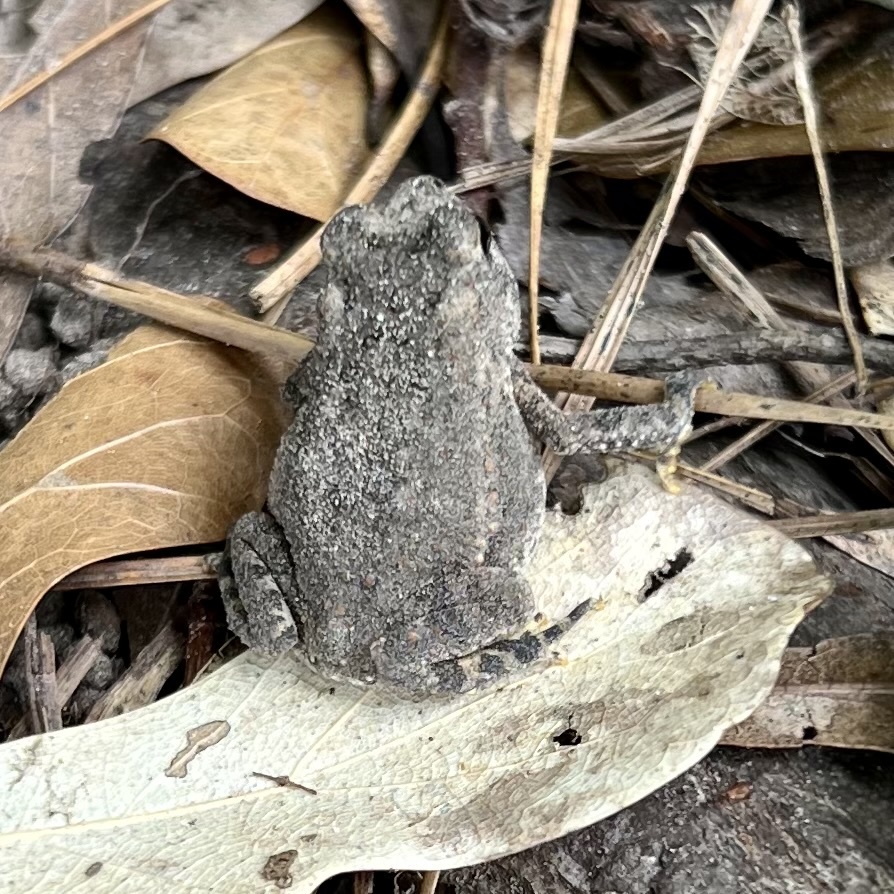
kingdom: Animalia
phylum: Chordata
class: Amphibia
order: Anura
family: Bufonidae
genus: Incilius
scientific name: Incilius nebulifer
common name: Gulf coast toad
